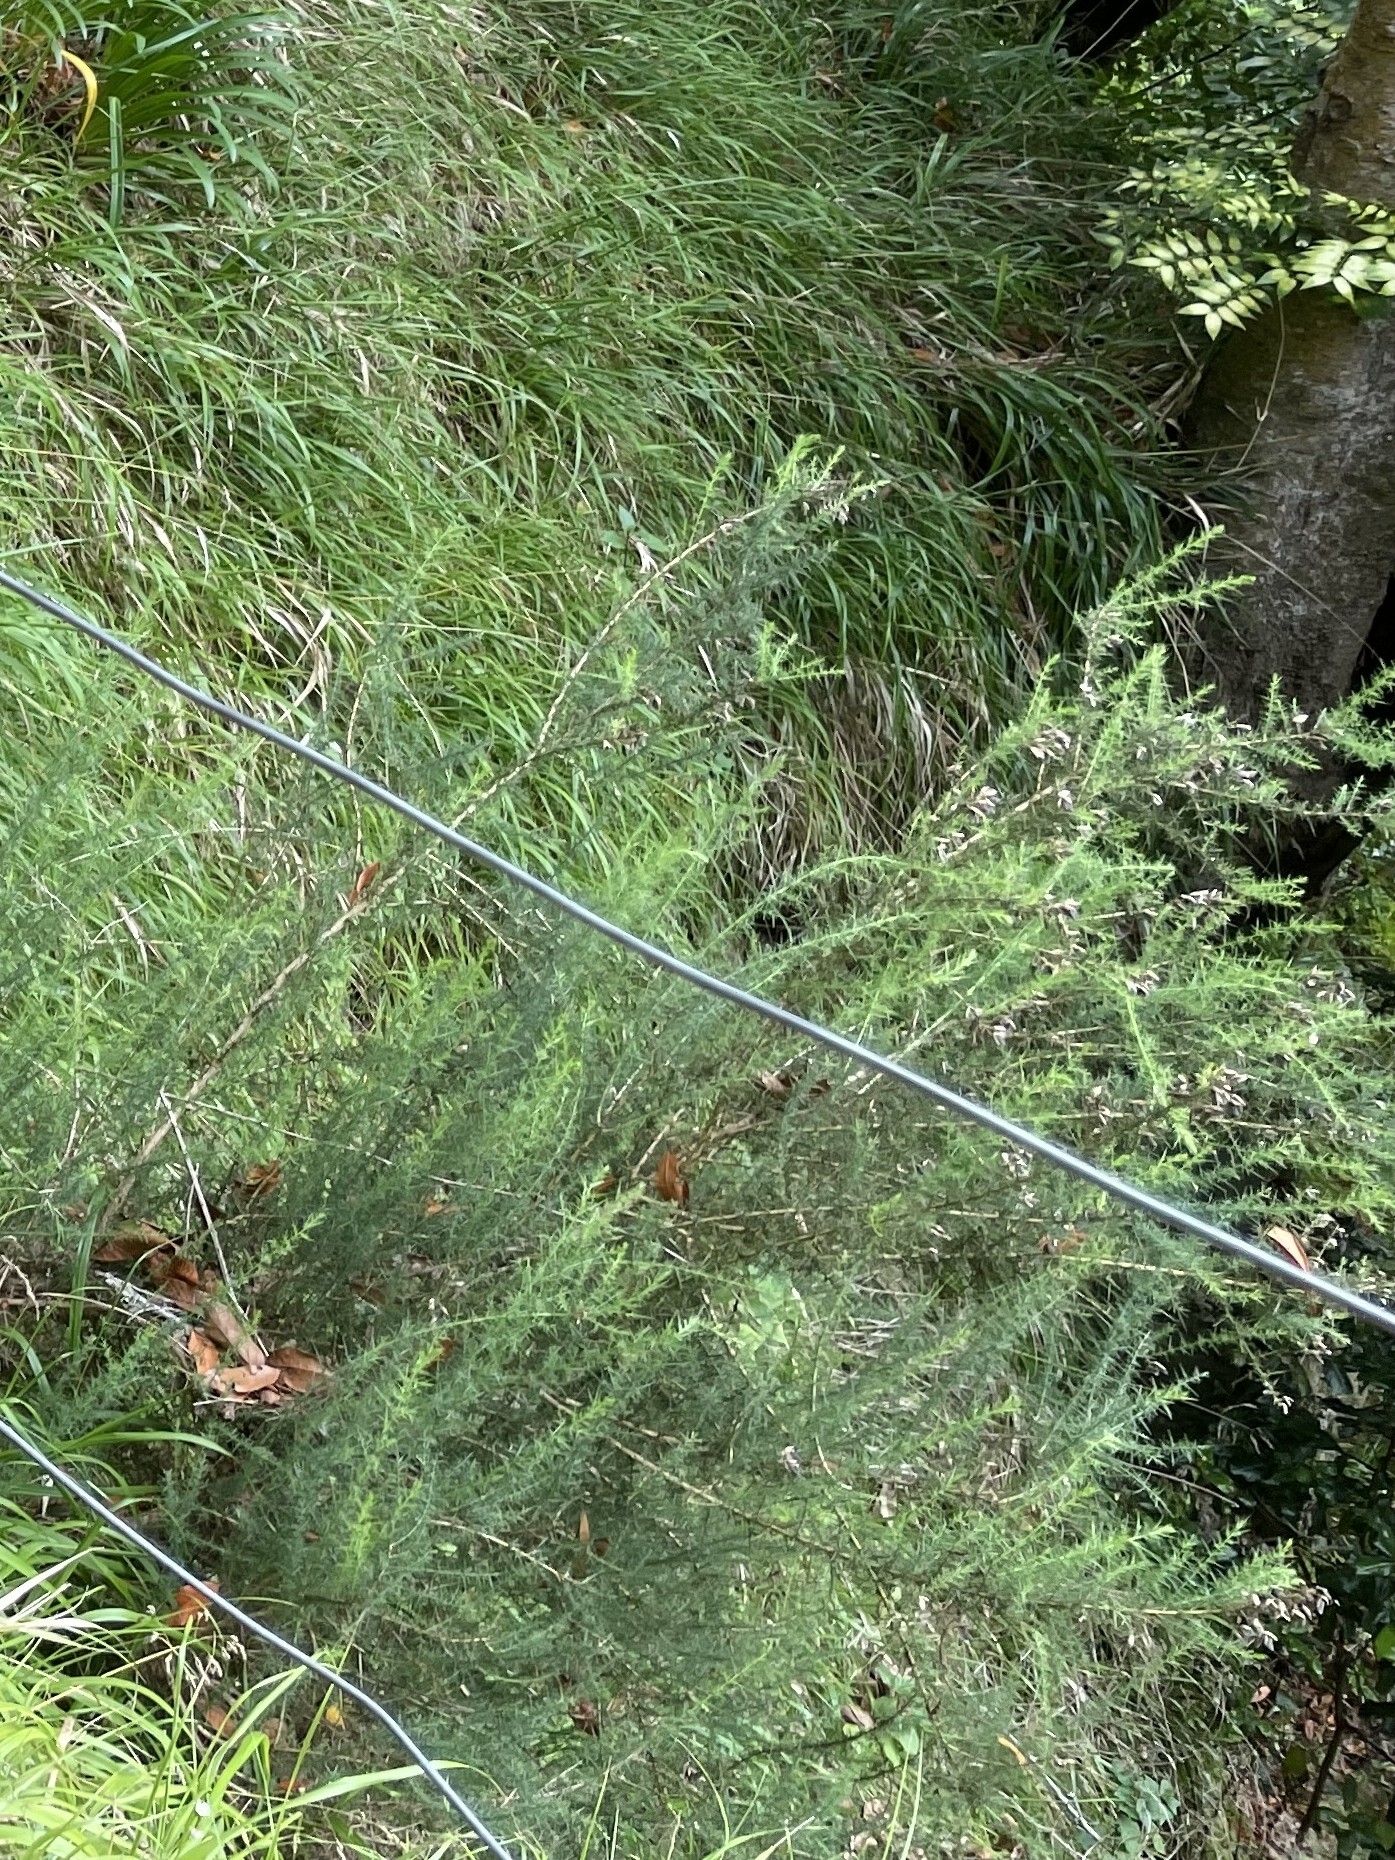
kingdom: Plantae
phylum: Tracheophyta
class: Magnoliopsida
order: Fabales
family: Fabaceae
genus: Ulex
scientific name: Ulex europaeus
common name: Common gorse
